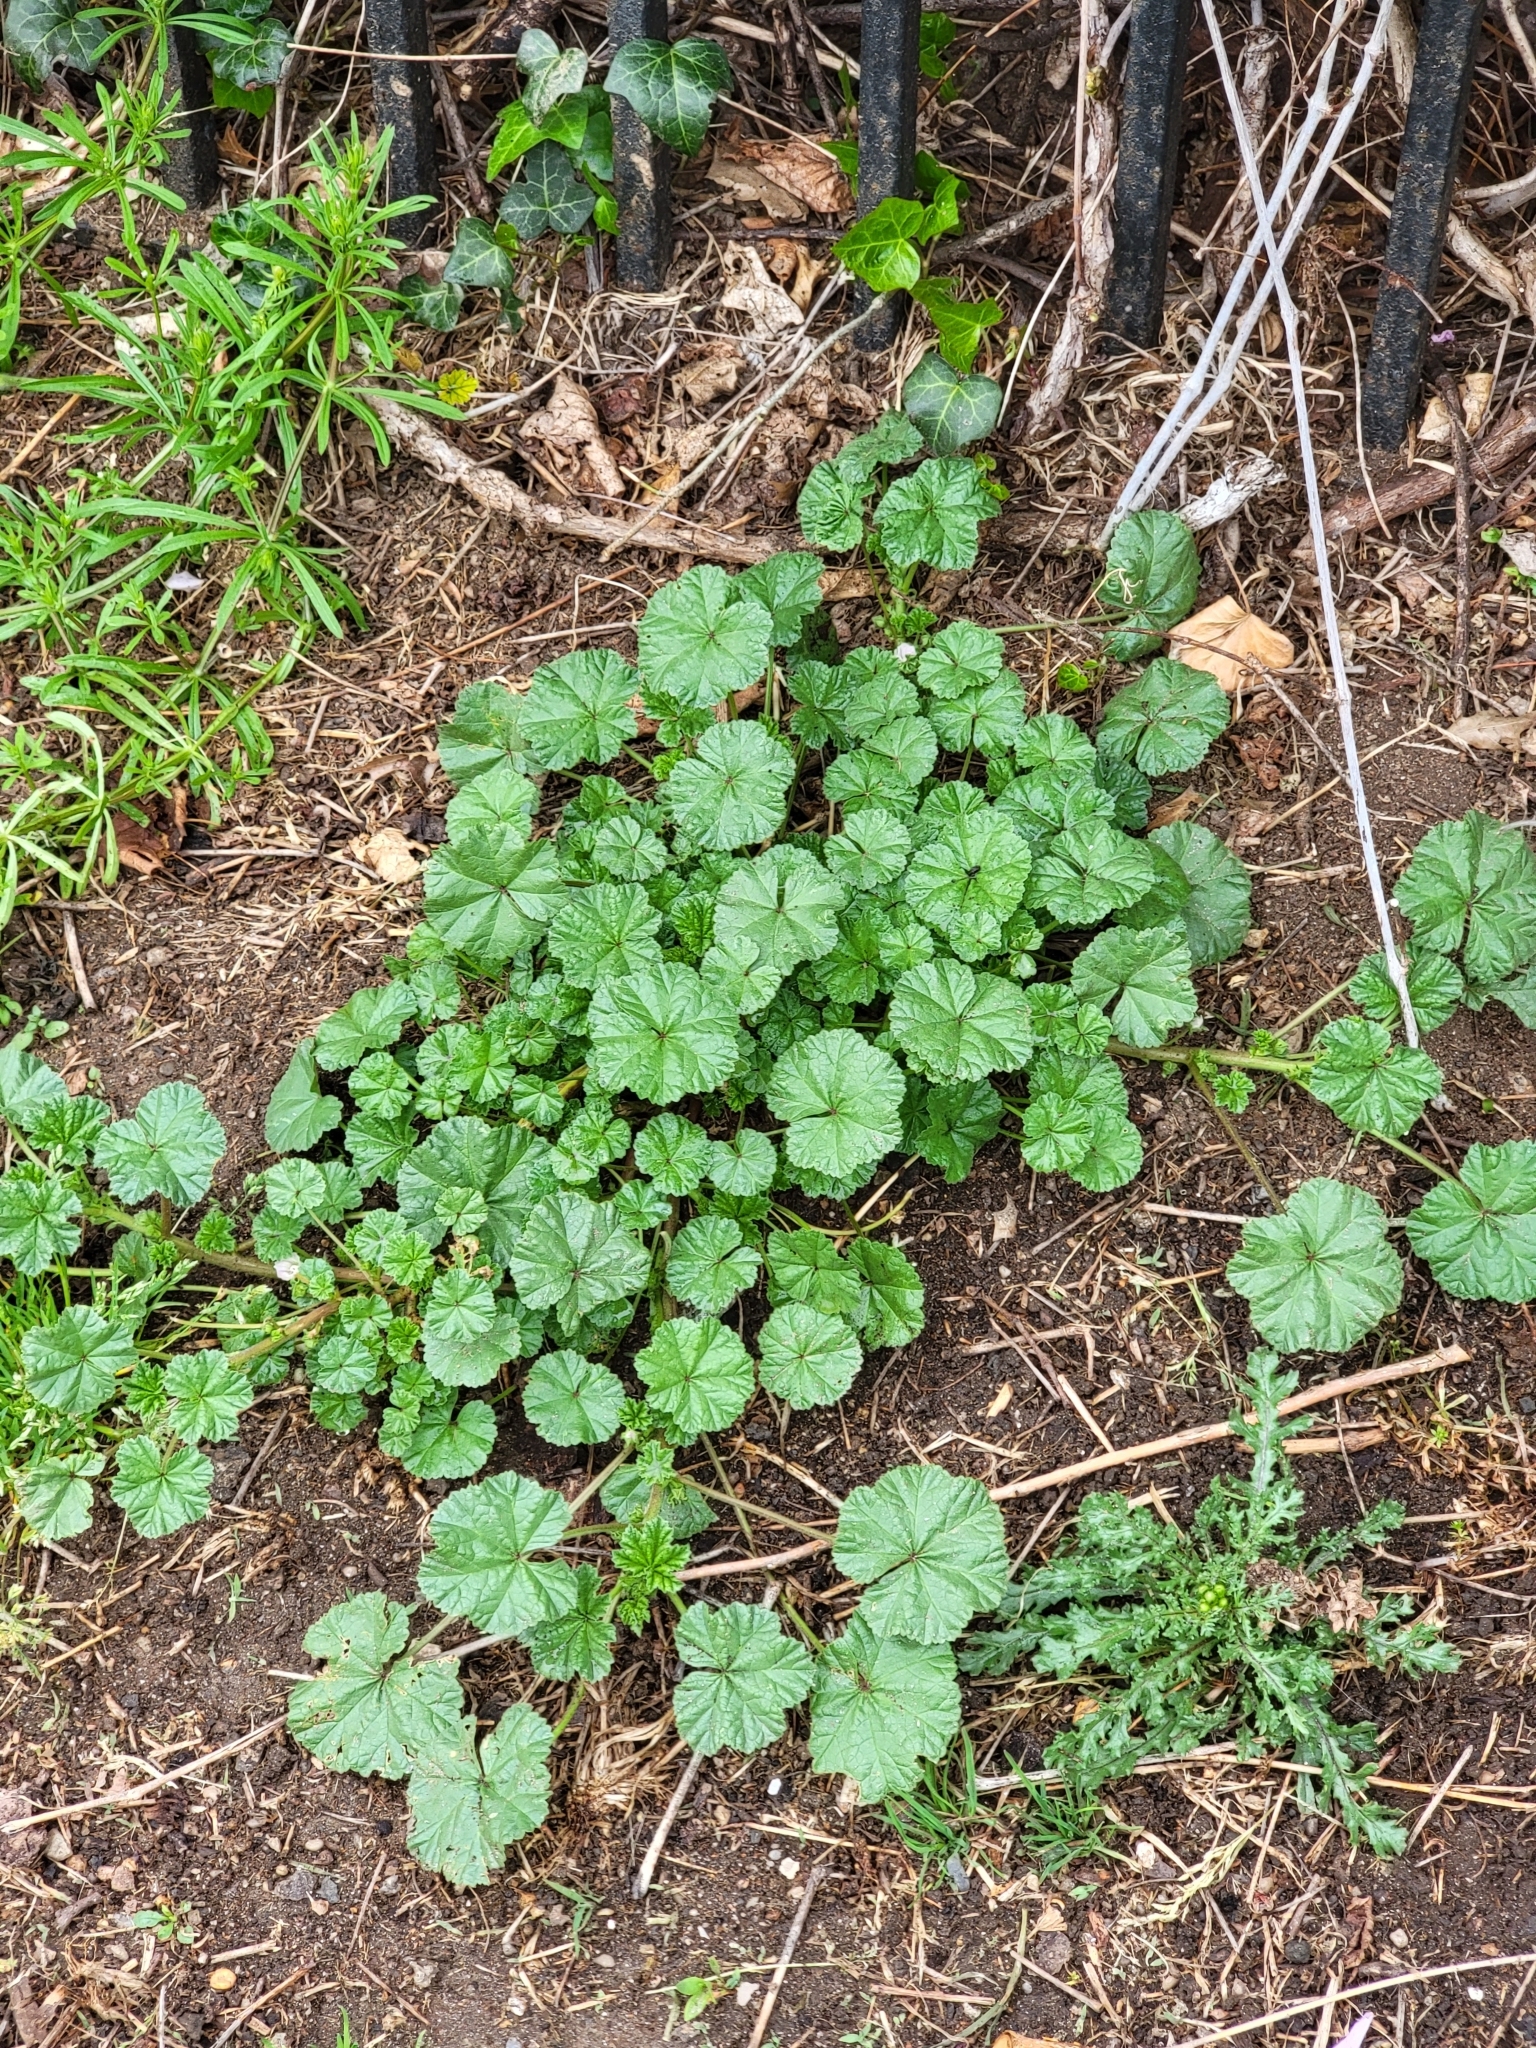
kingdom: Plantae
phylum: Tracheophyta
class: Magnoliopsida
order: Malvales
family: Malvaceae
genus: Malva
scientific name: Malva neglecta
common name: Common mallow
